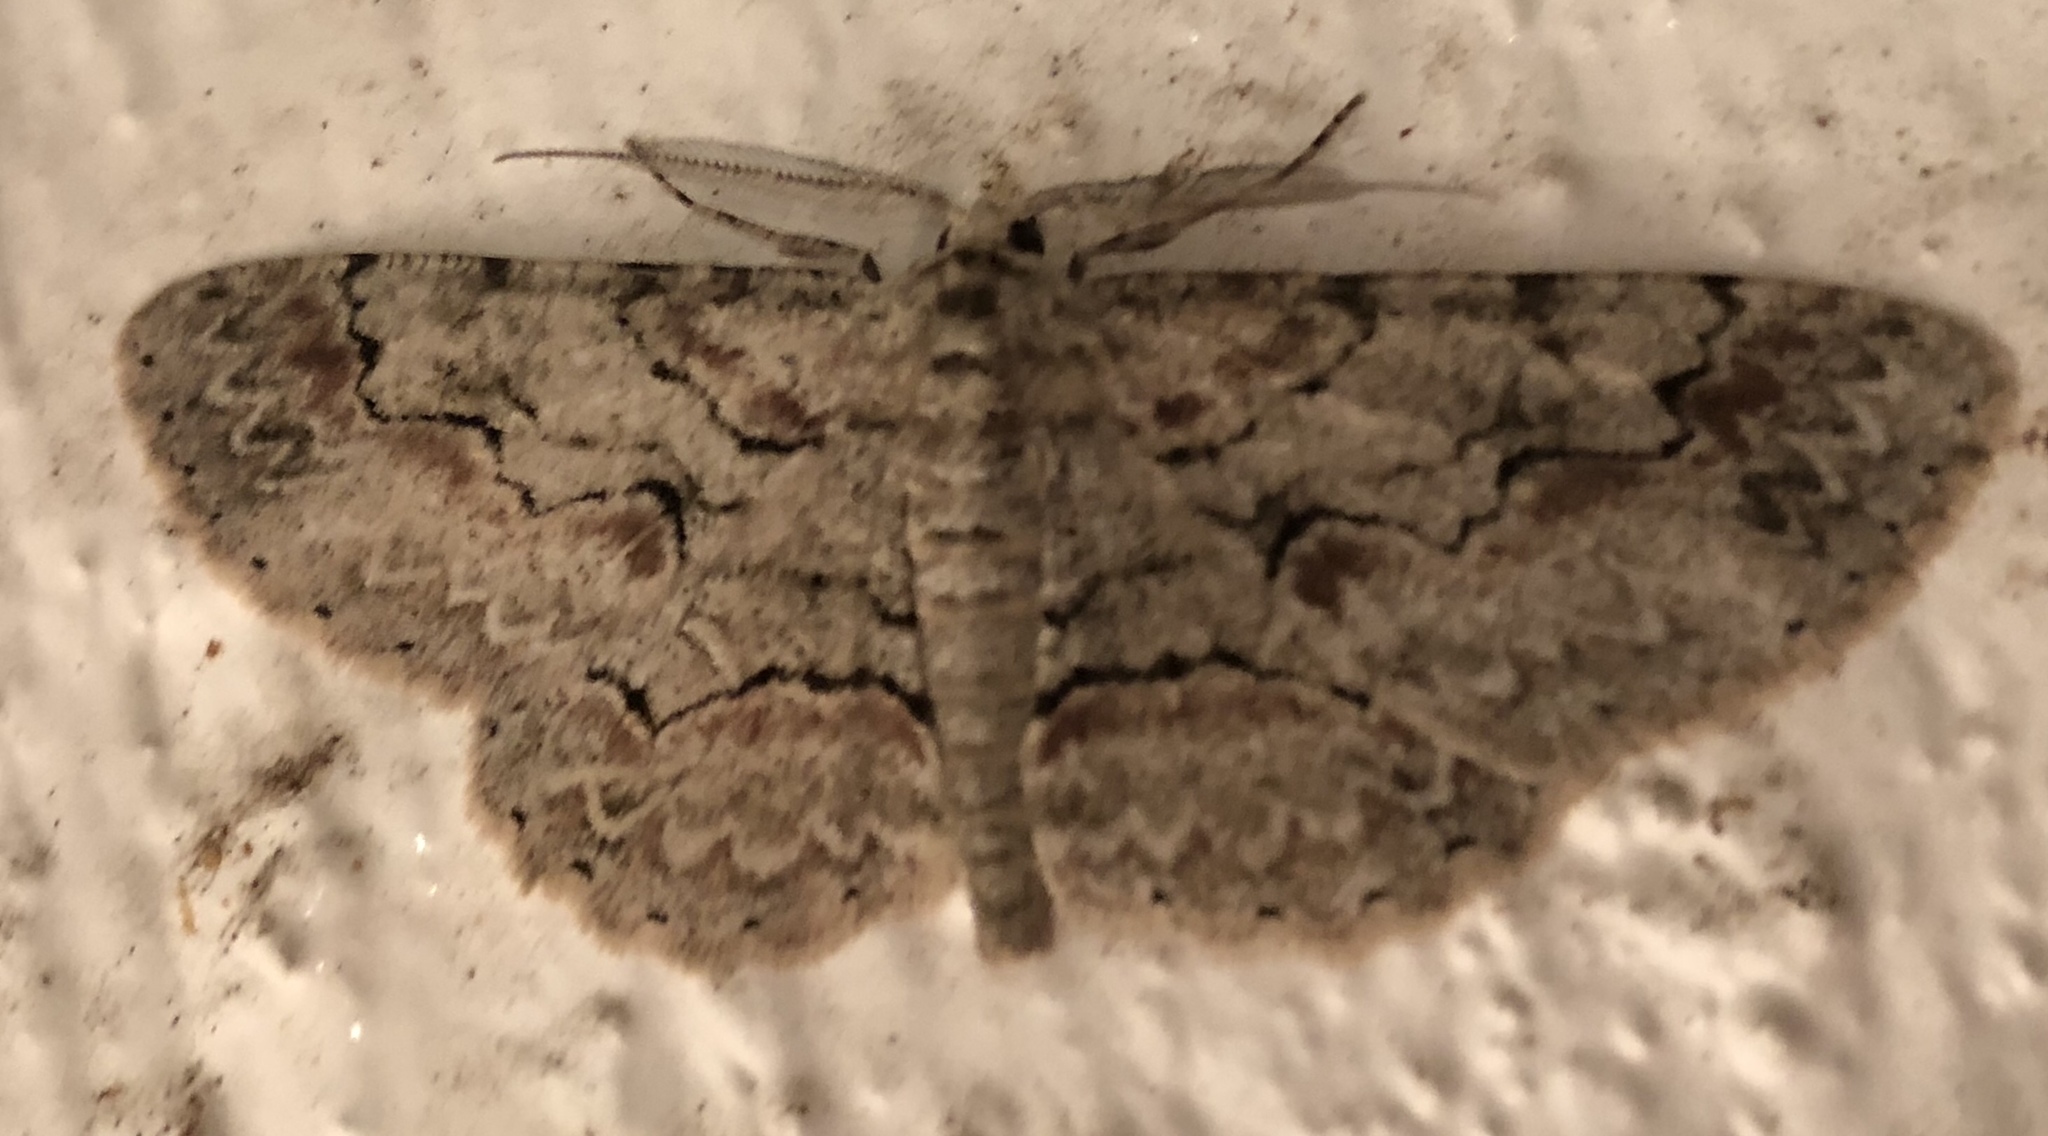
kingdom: Animalia
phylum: Arthropoda
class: Insecta
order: Lepidoptera
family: Geometridae
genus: Iridopsis
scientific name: Iridopsis defectaria
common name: Brown-shaded gray
